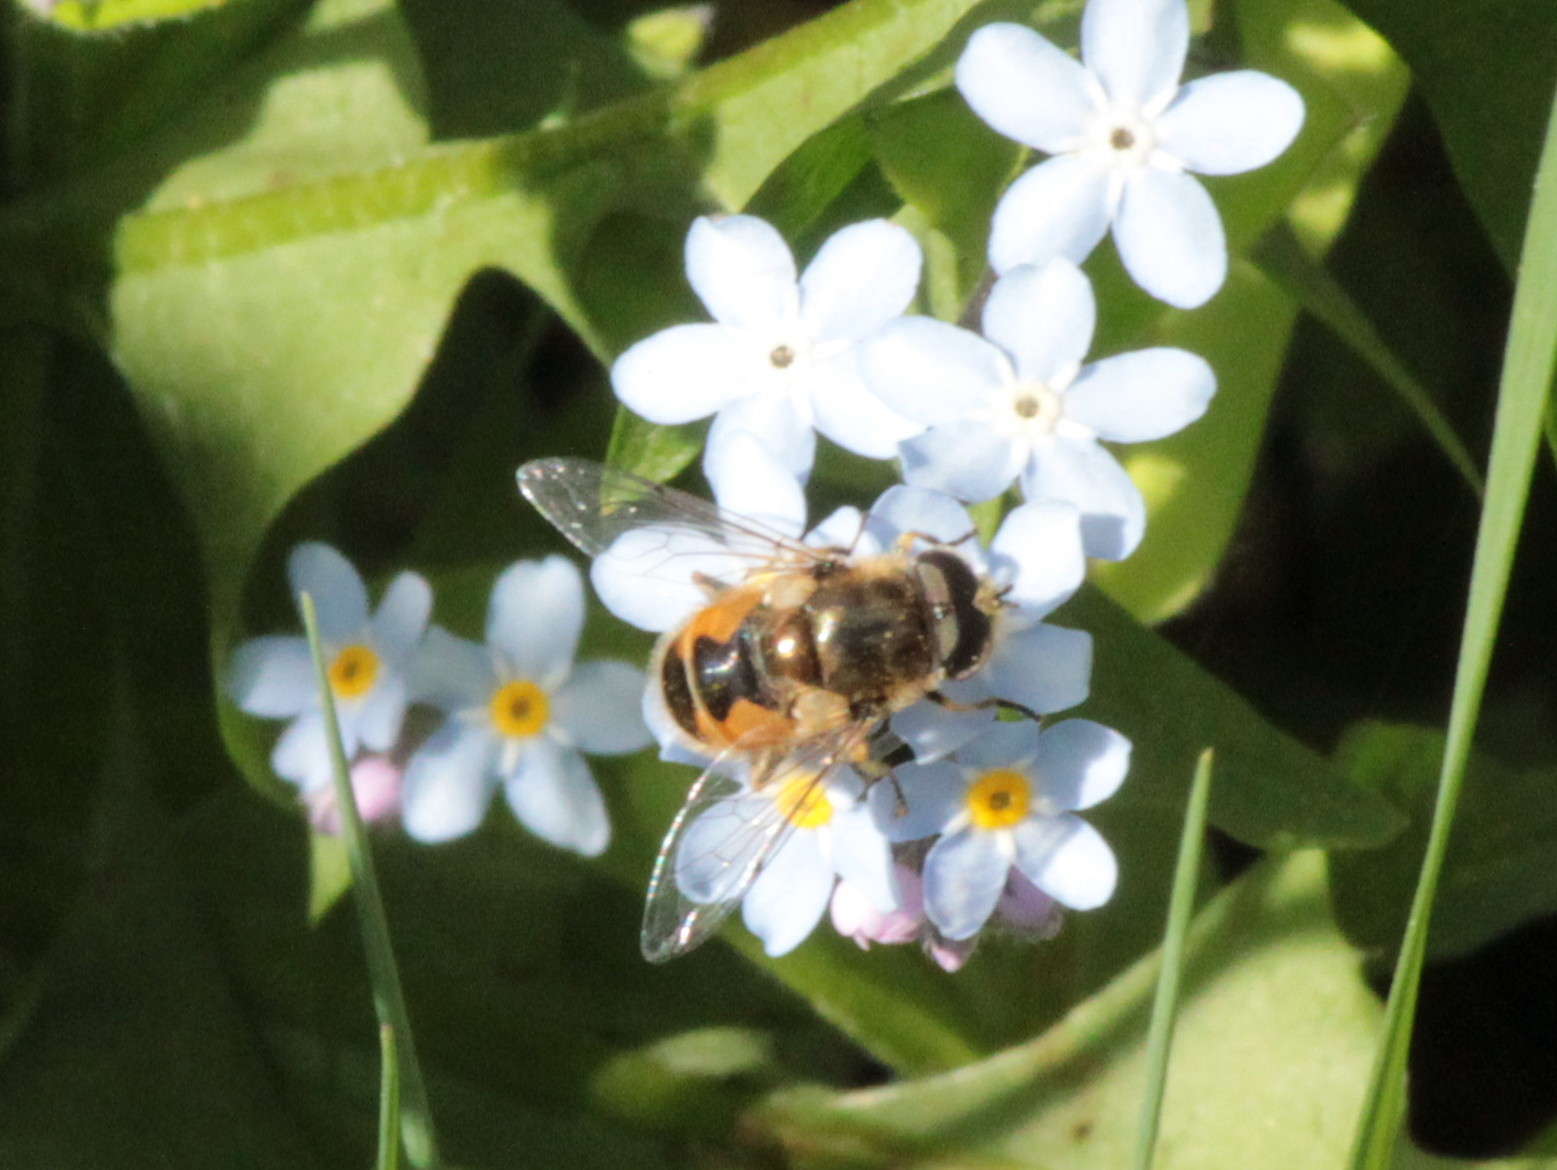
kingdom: Animalia
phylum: Arthropoda
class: Insecta
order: Diptera
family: Syrphidae
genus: Eristalis
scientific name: Eristalis arbustorum
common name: Hover fly
